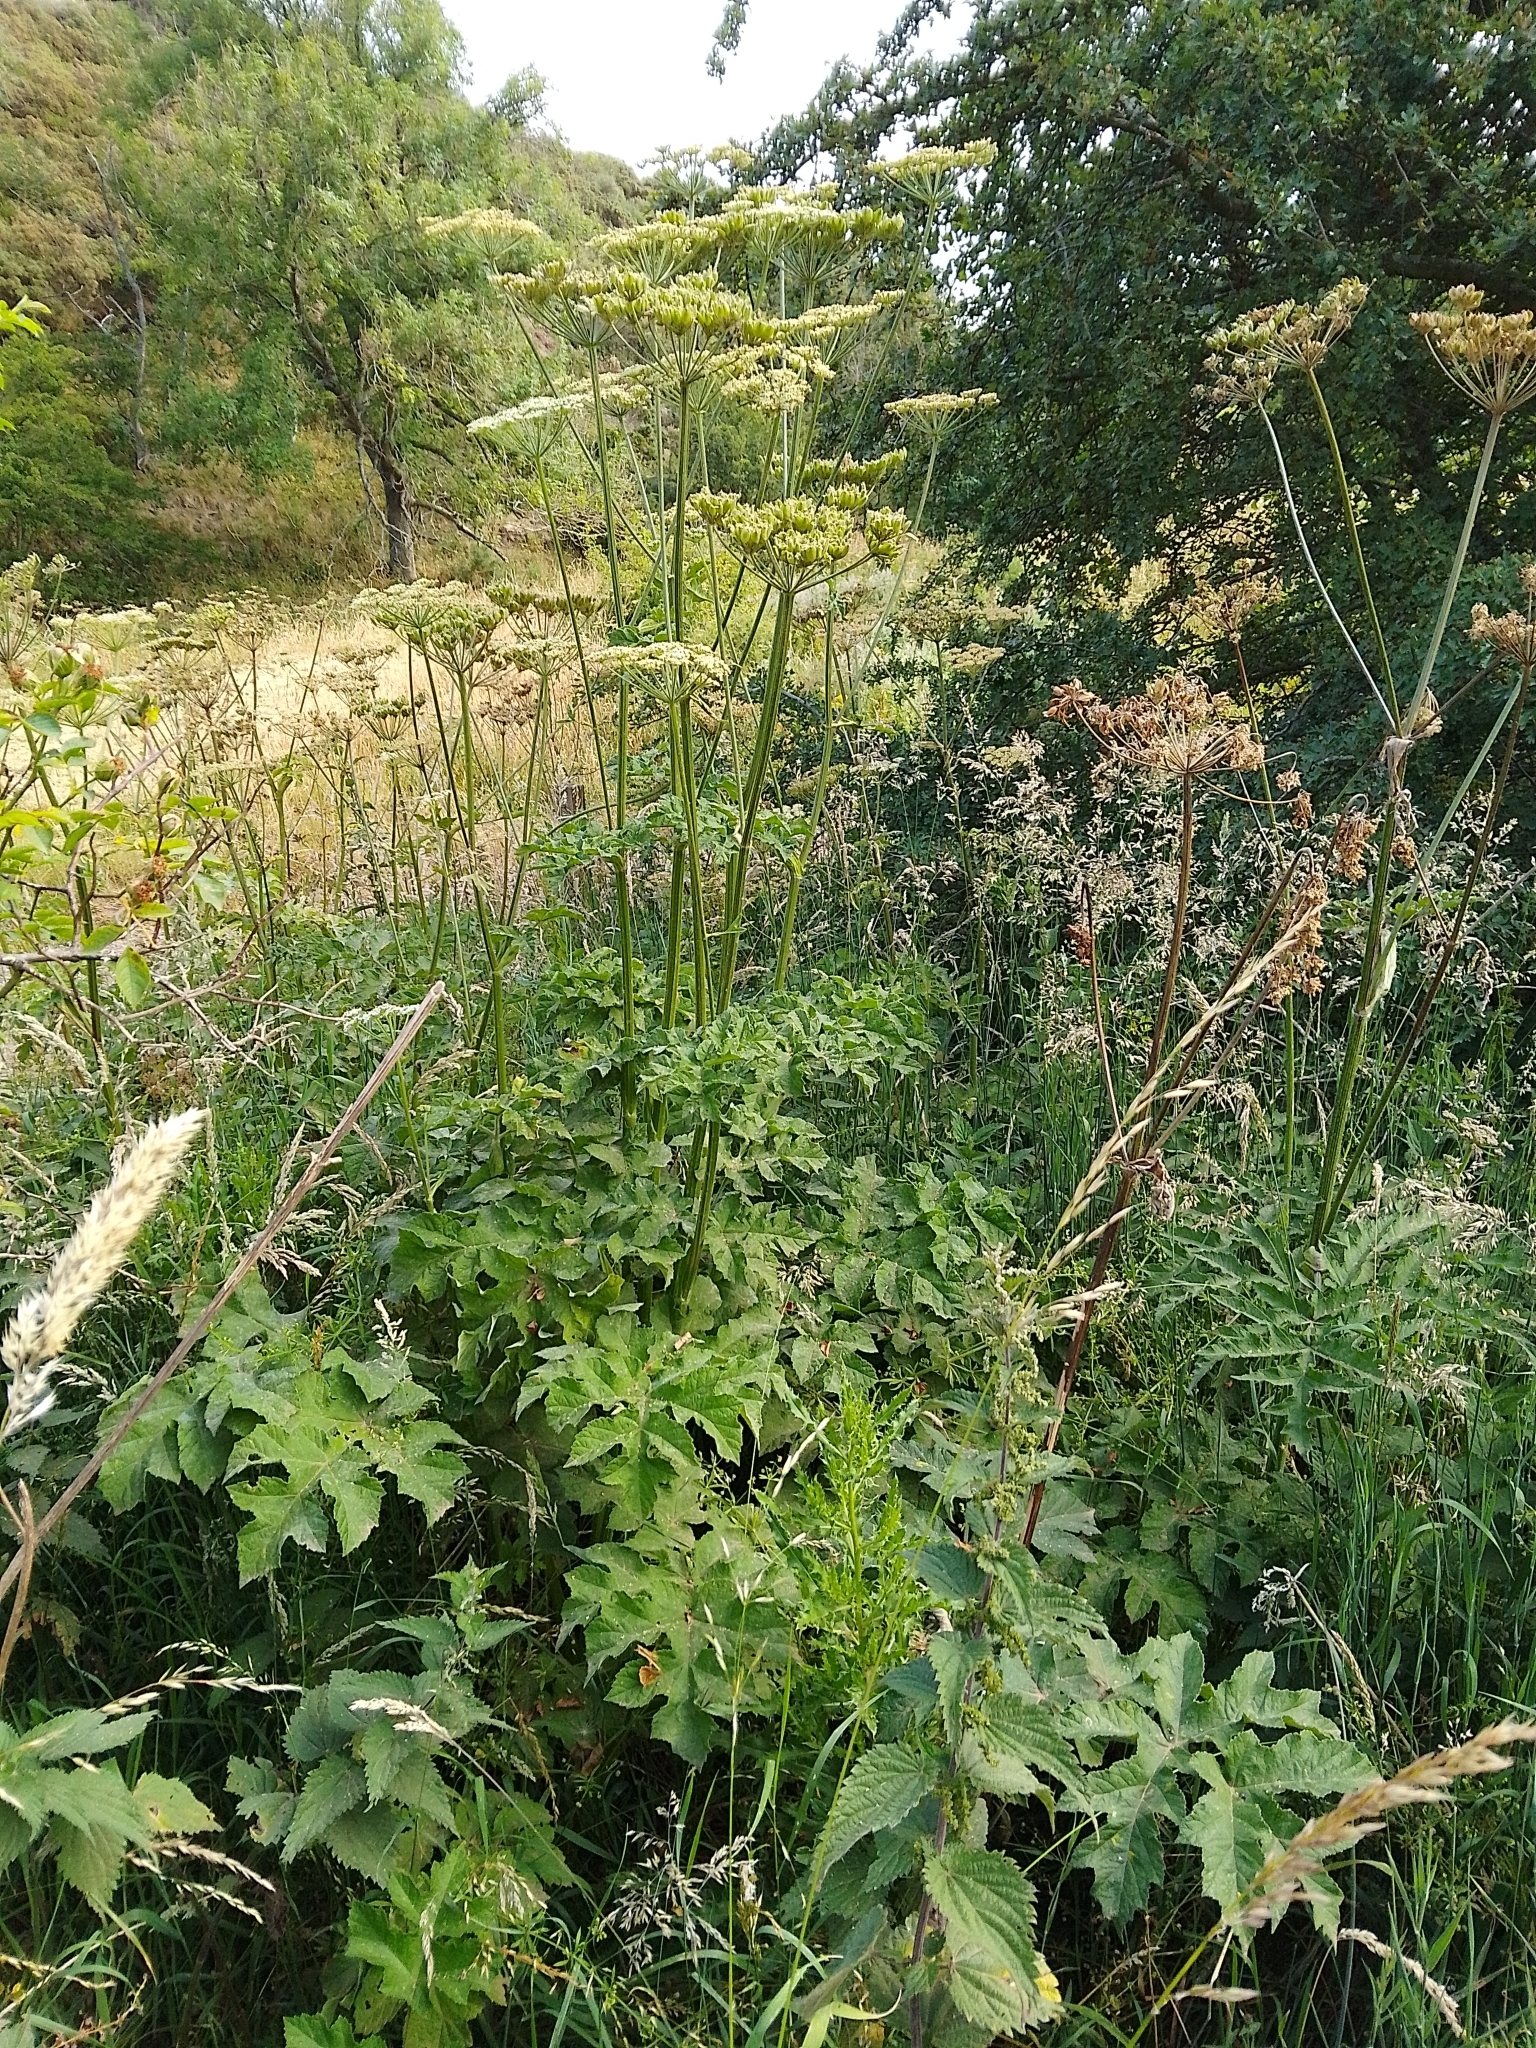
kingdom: Plantae
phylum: Tracheophyta
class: Magnoliopsida
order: Apiales
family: Apiaceae
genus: Heracleum
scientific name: Heracleum sphondylium
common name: Hogweed
